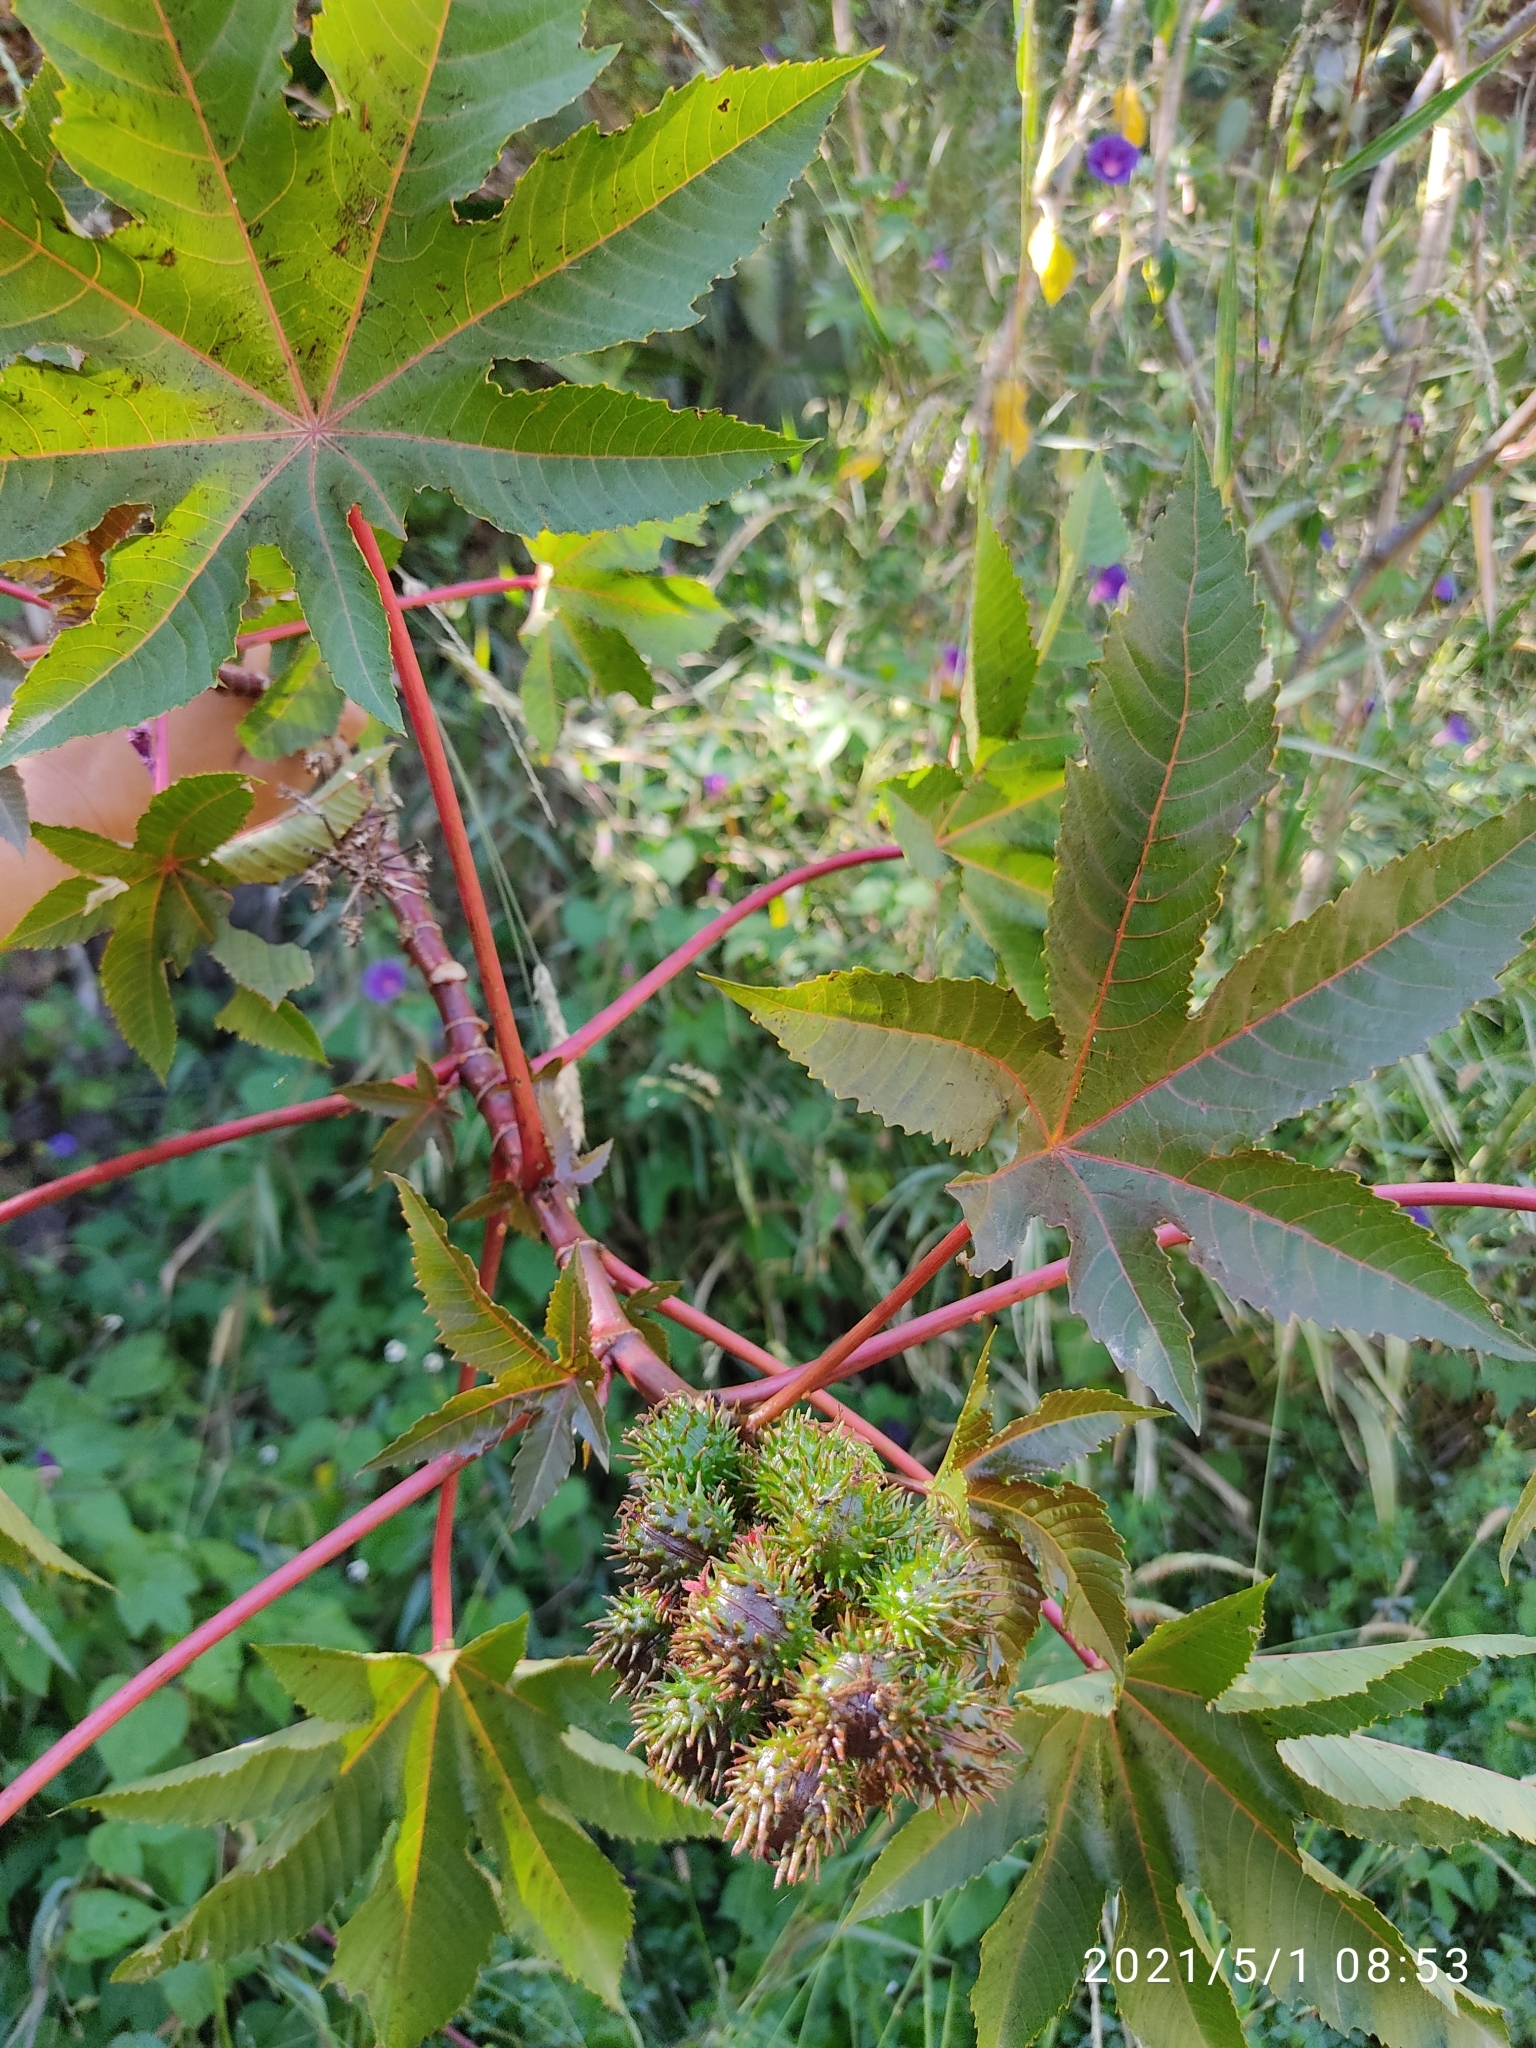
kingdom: Plantae
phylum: Tracheophyta
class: Magnoliopsida
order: Malpighiales
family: Euphorbiaceae
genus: Ricinus
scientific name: Ricinus communis
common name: Castor-oil-plant
